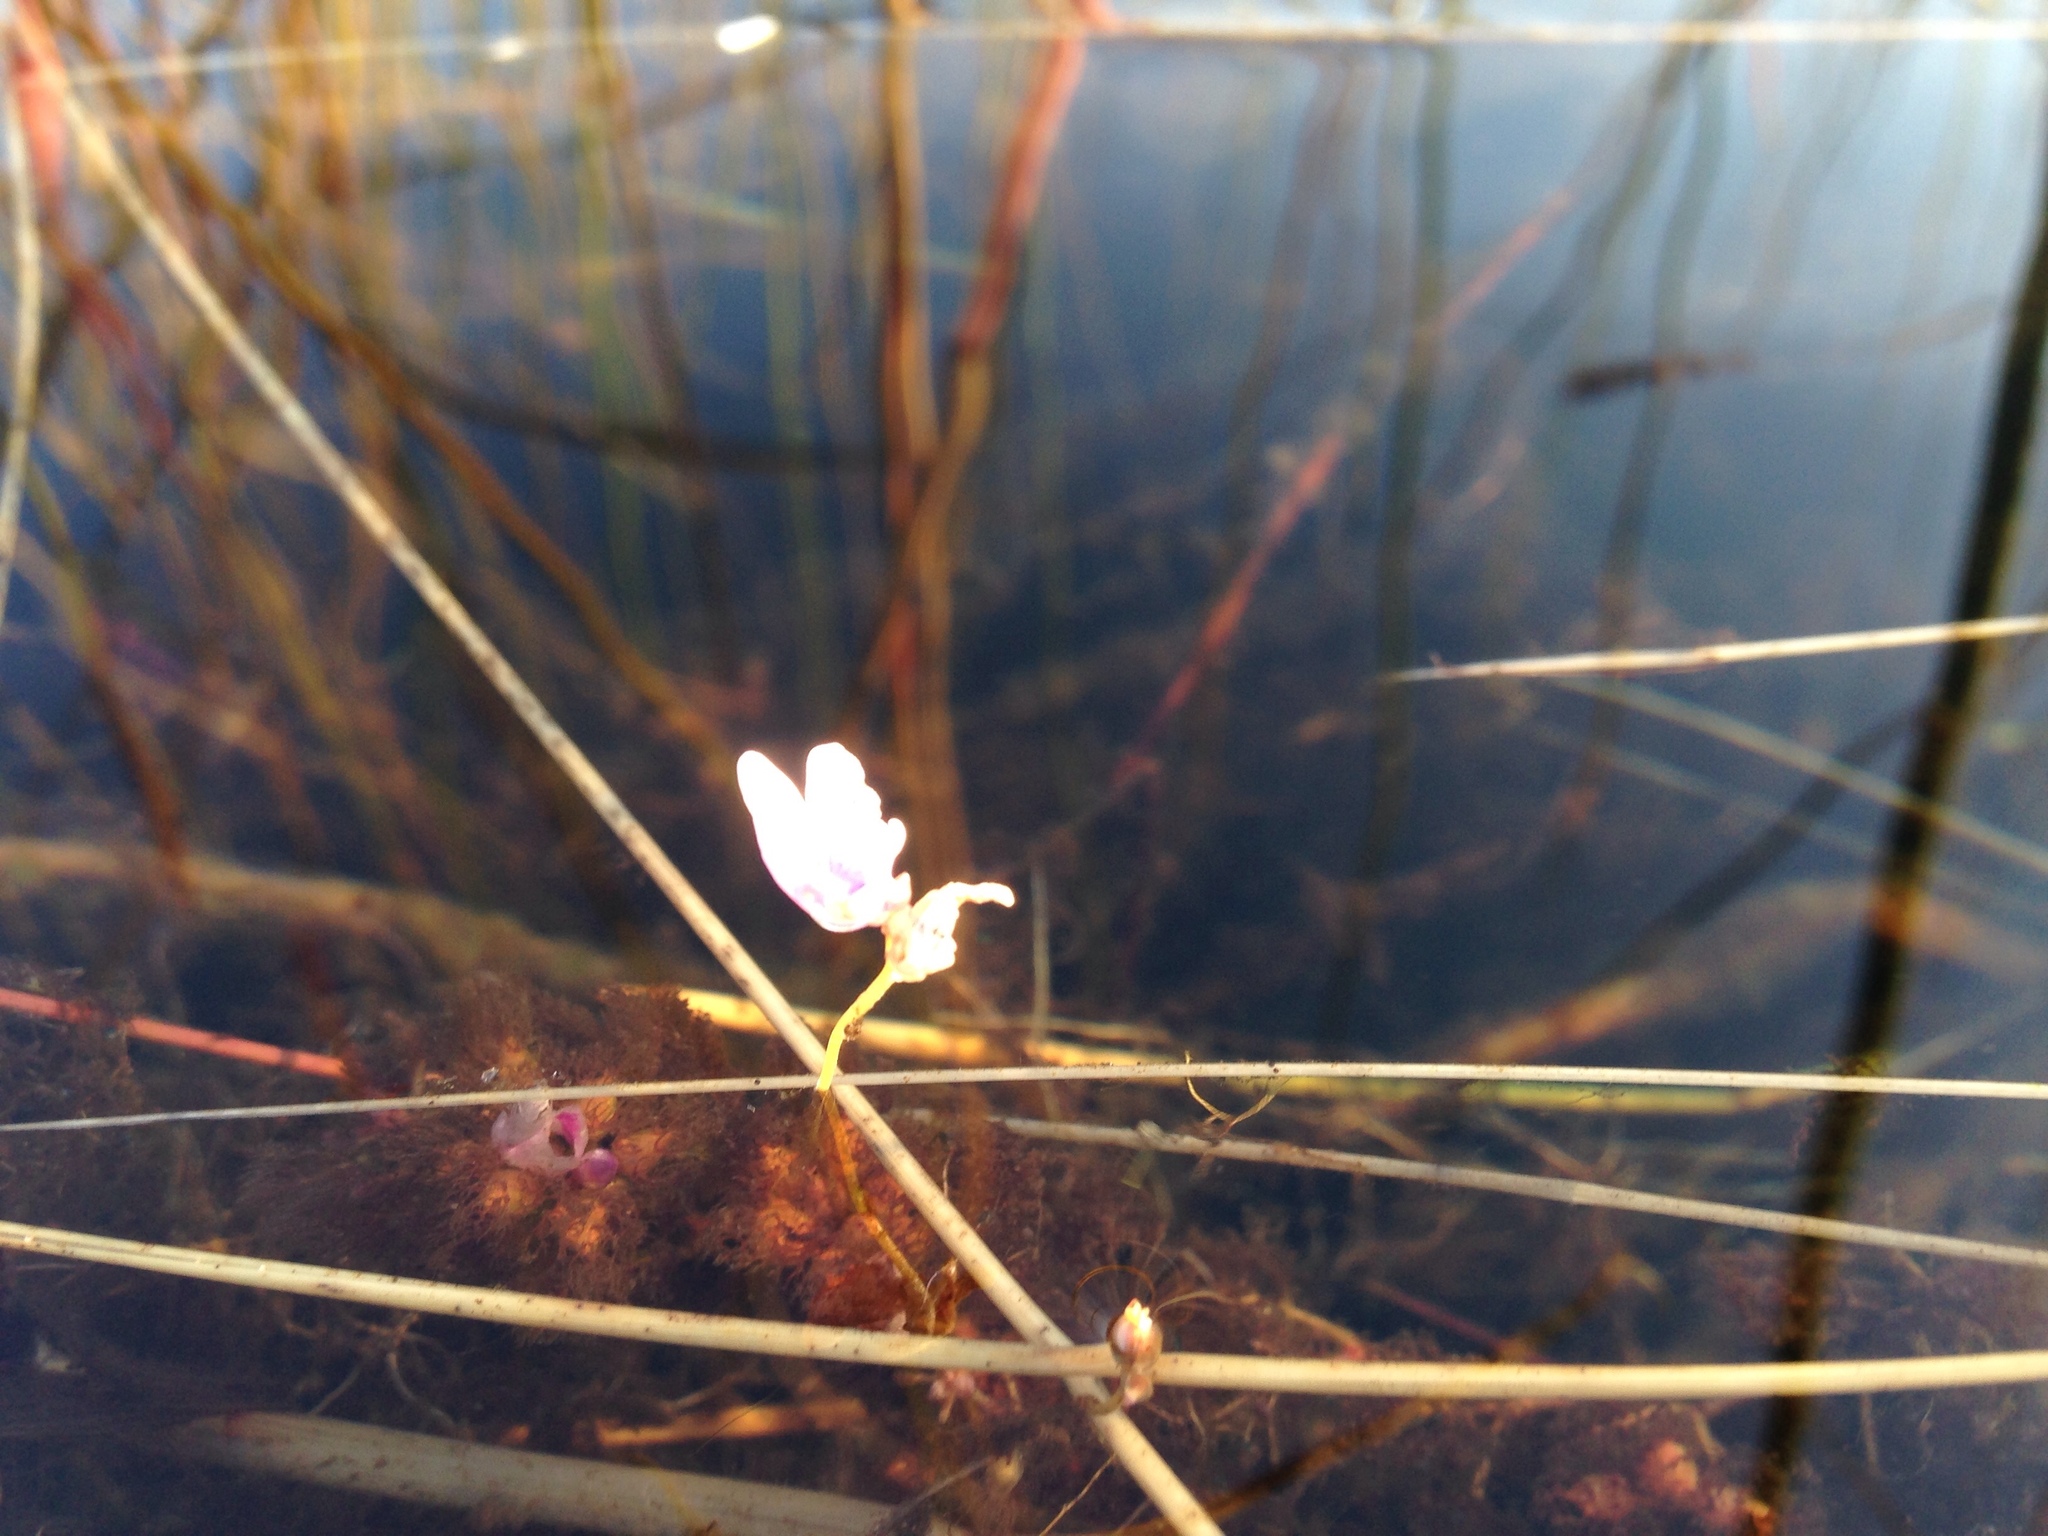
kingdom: Plantae
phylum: Tracheophyta
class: Magnoliopsida
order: Lamiales
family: Lentibulariaceae
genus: Utricularia
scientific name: Utricularia benjaminiana
